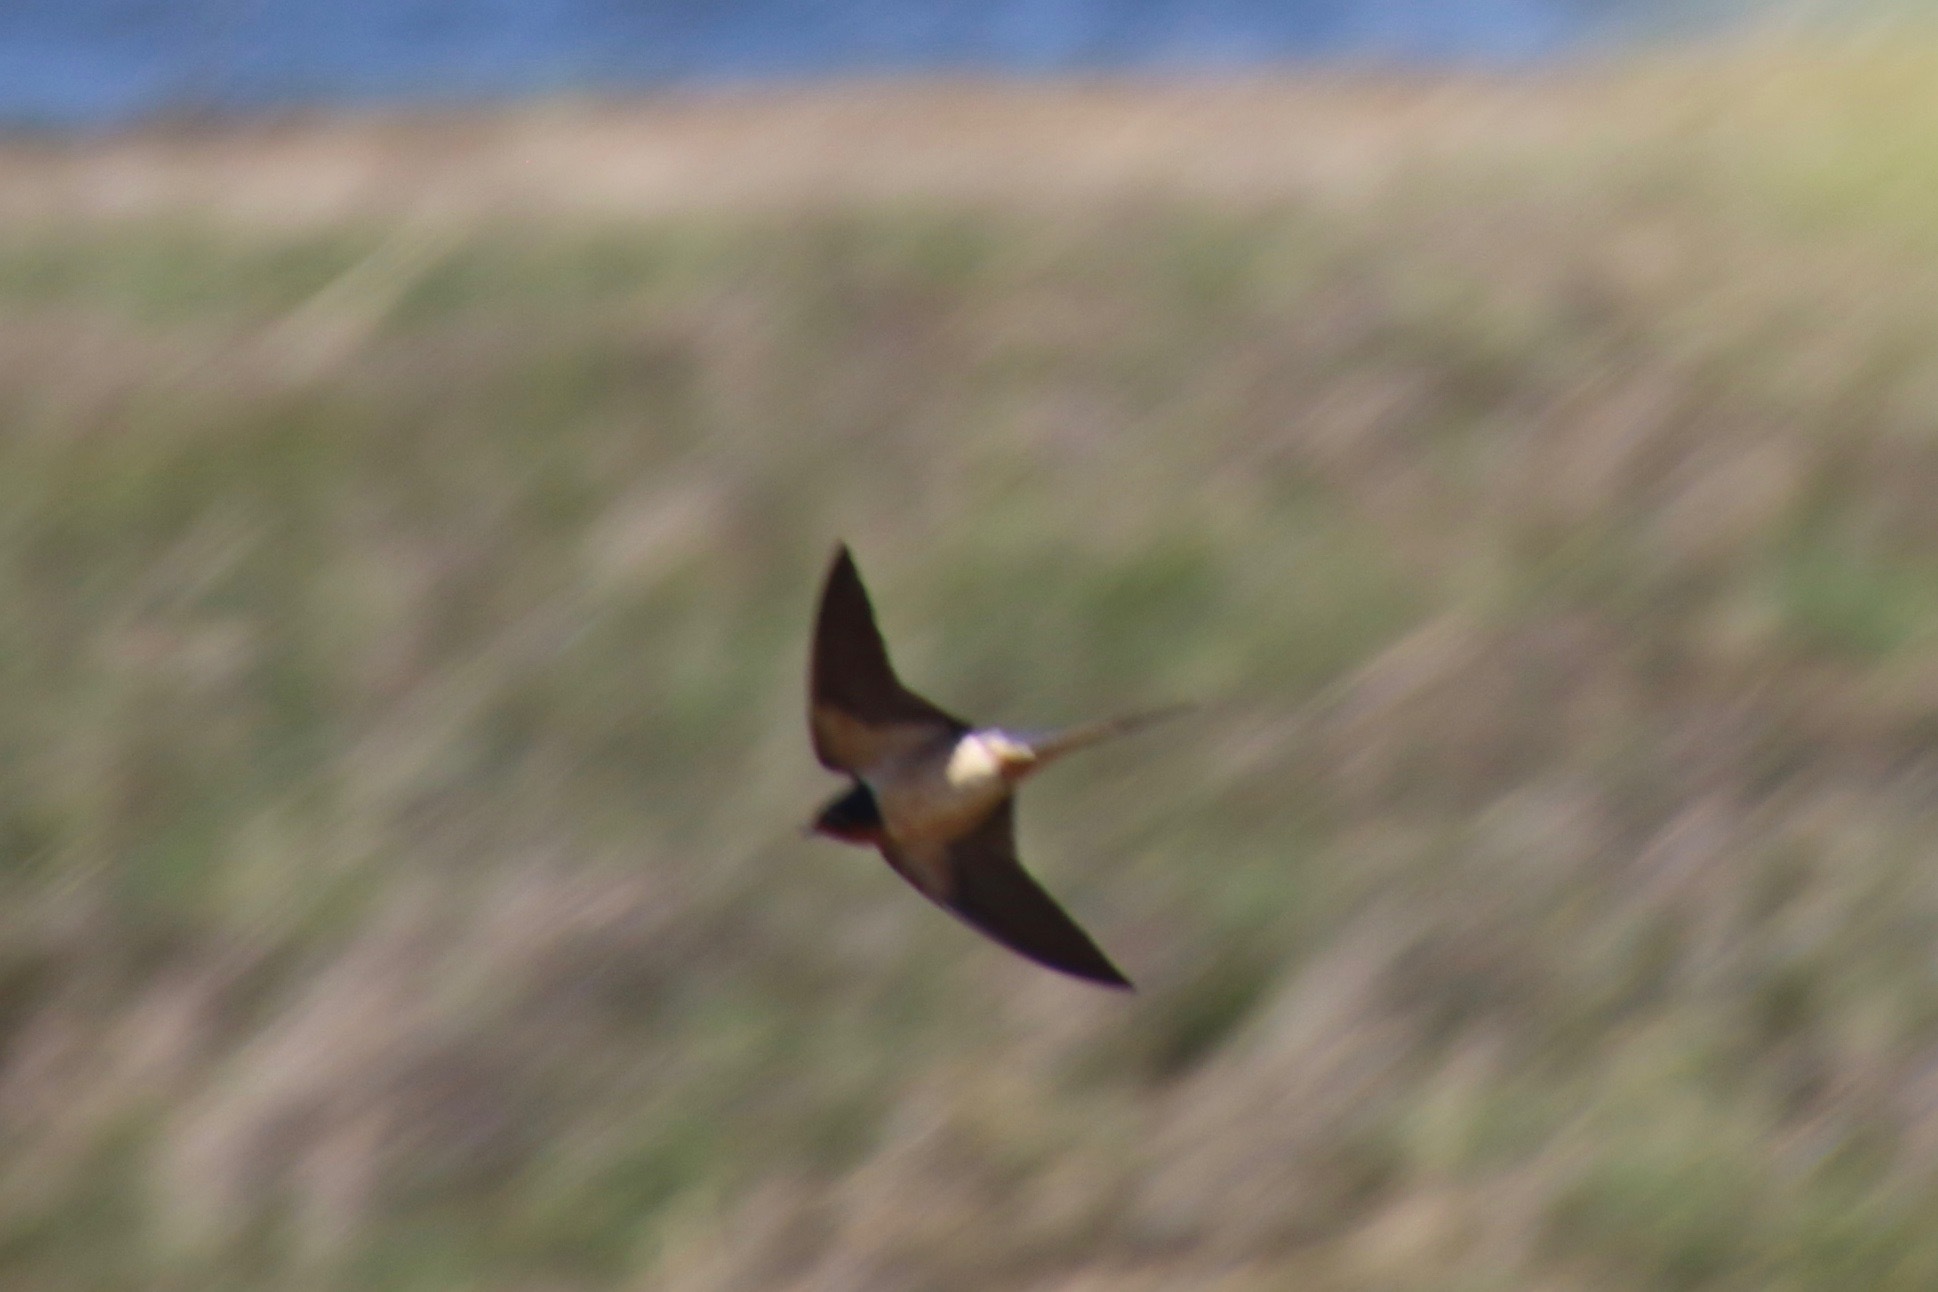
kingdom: Animalia
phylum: Chordata
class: Aves
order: Passeriformes
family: Hirundinidae
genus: Hirundo
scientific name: Hirundo rustica
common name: Barn swallow
